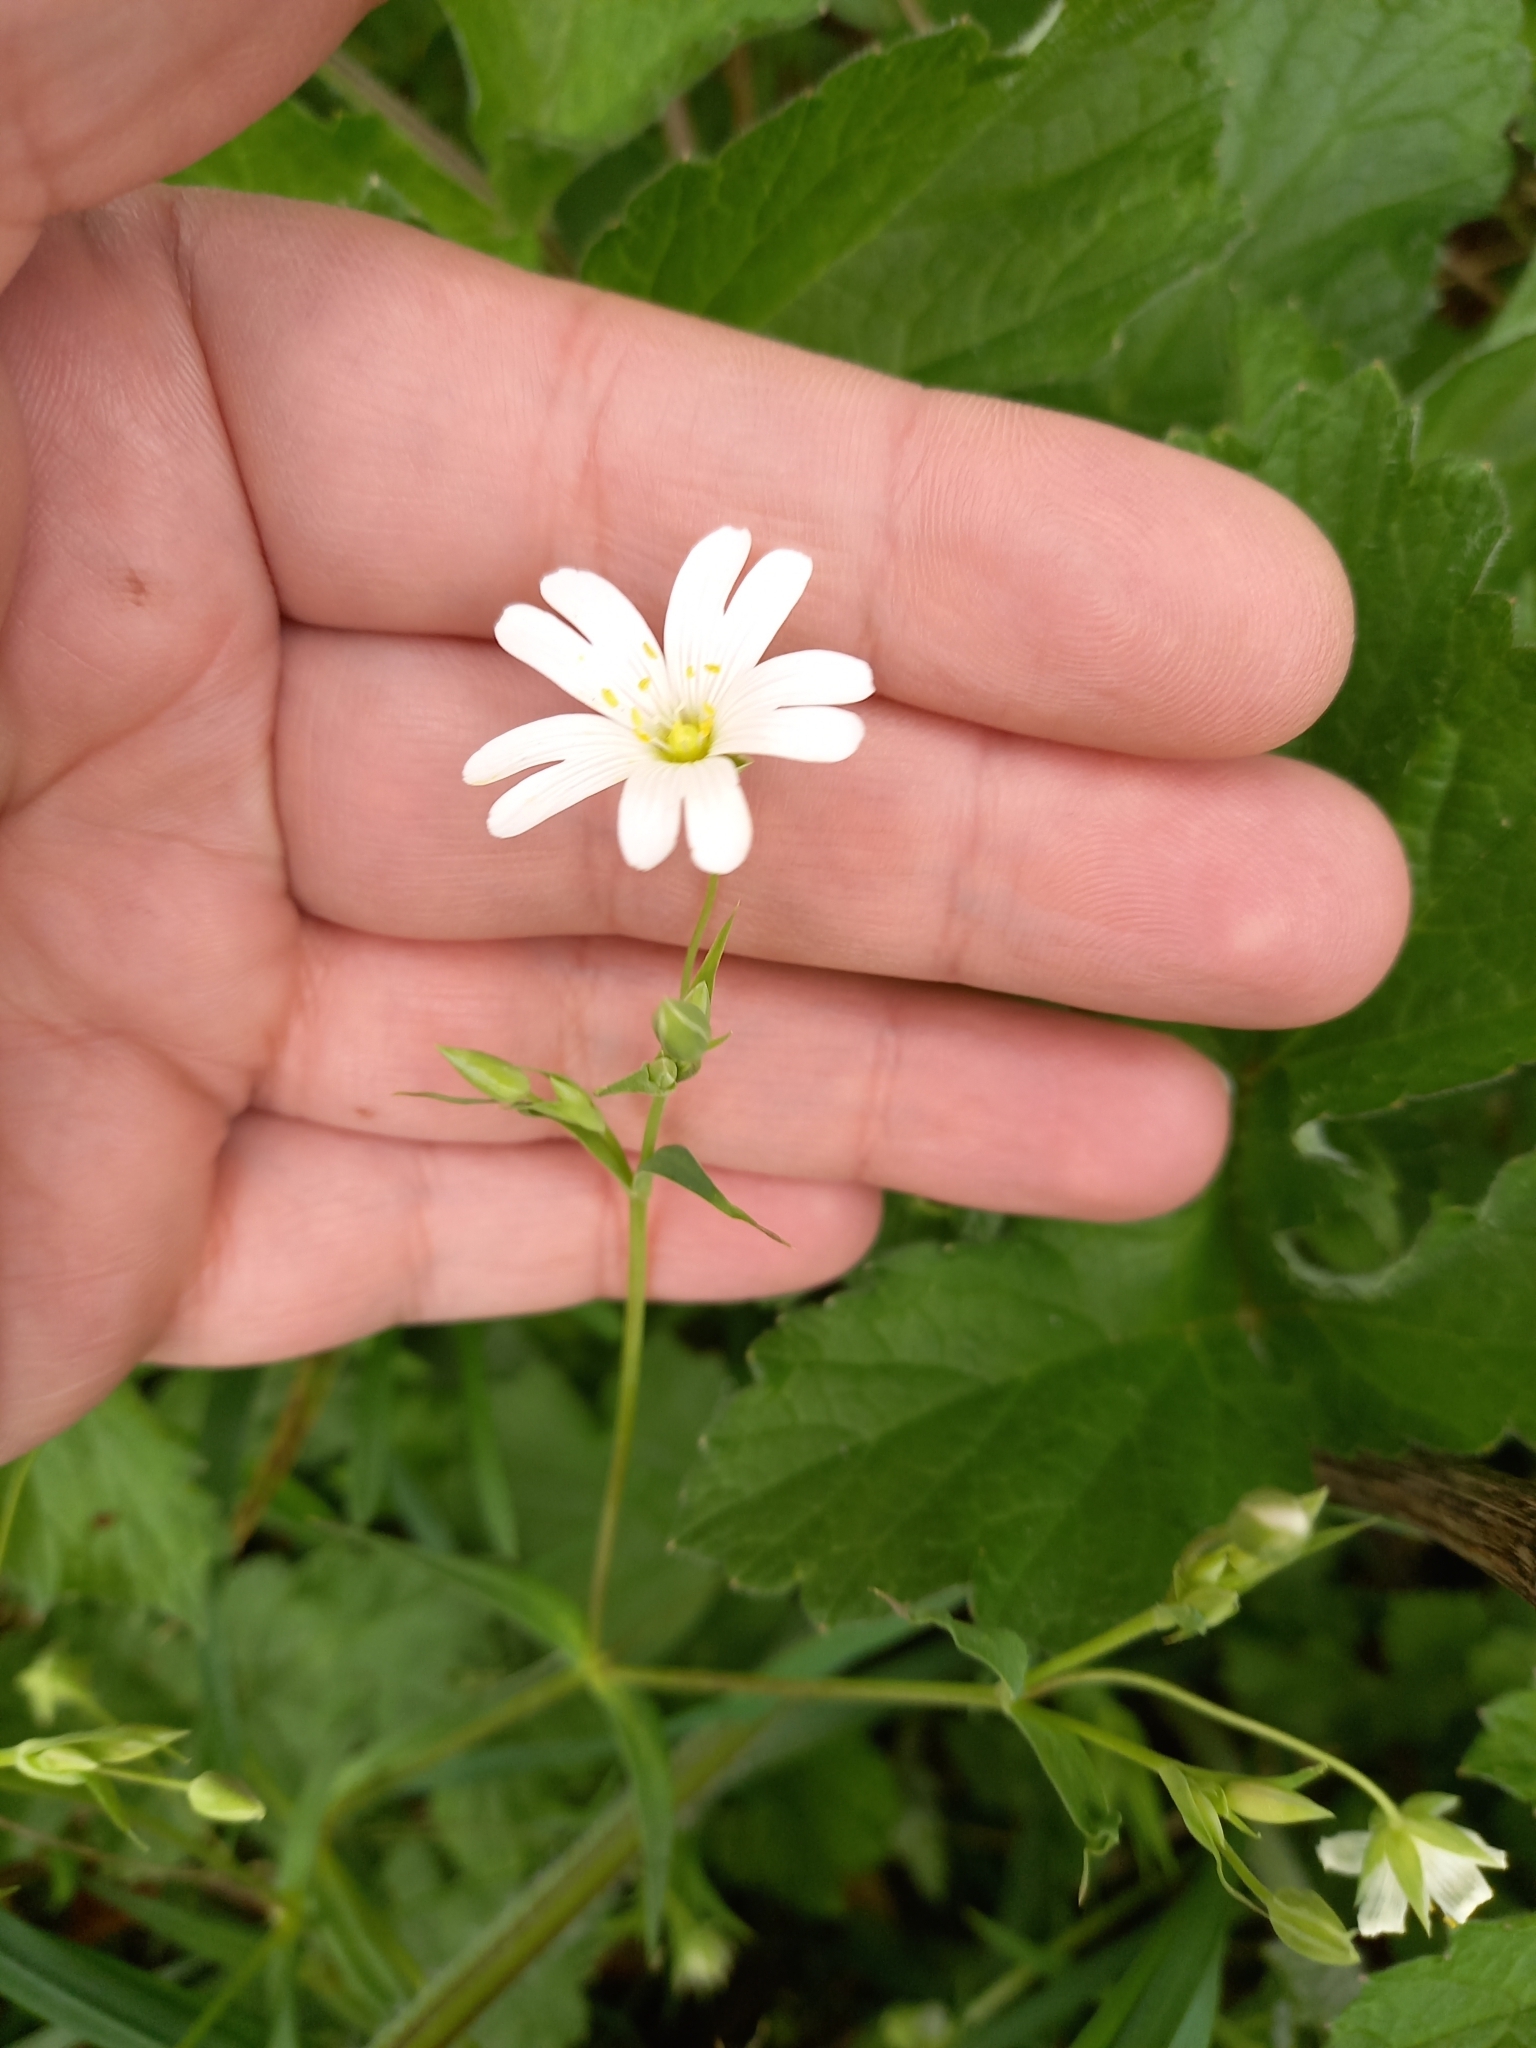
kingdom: Plantae
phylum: Tracheophyta
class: Magnoliopsida
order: Caryophyllales
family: Caryophyllaceae
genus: Rabelera
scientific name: Rabelera holostea
